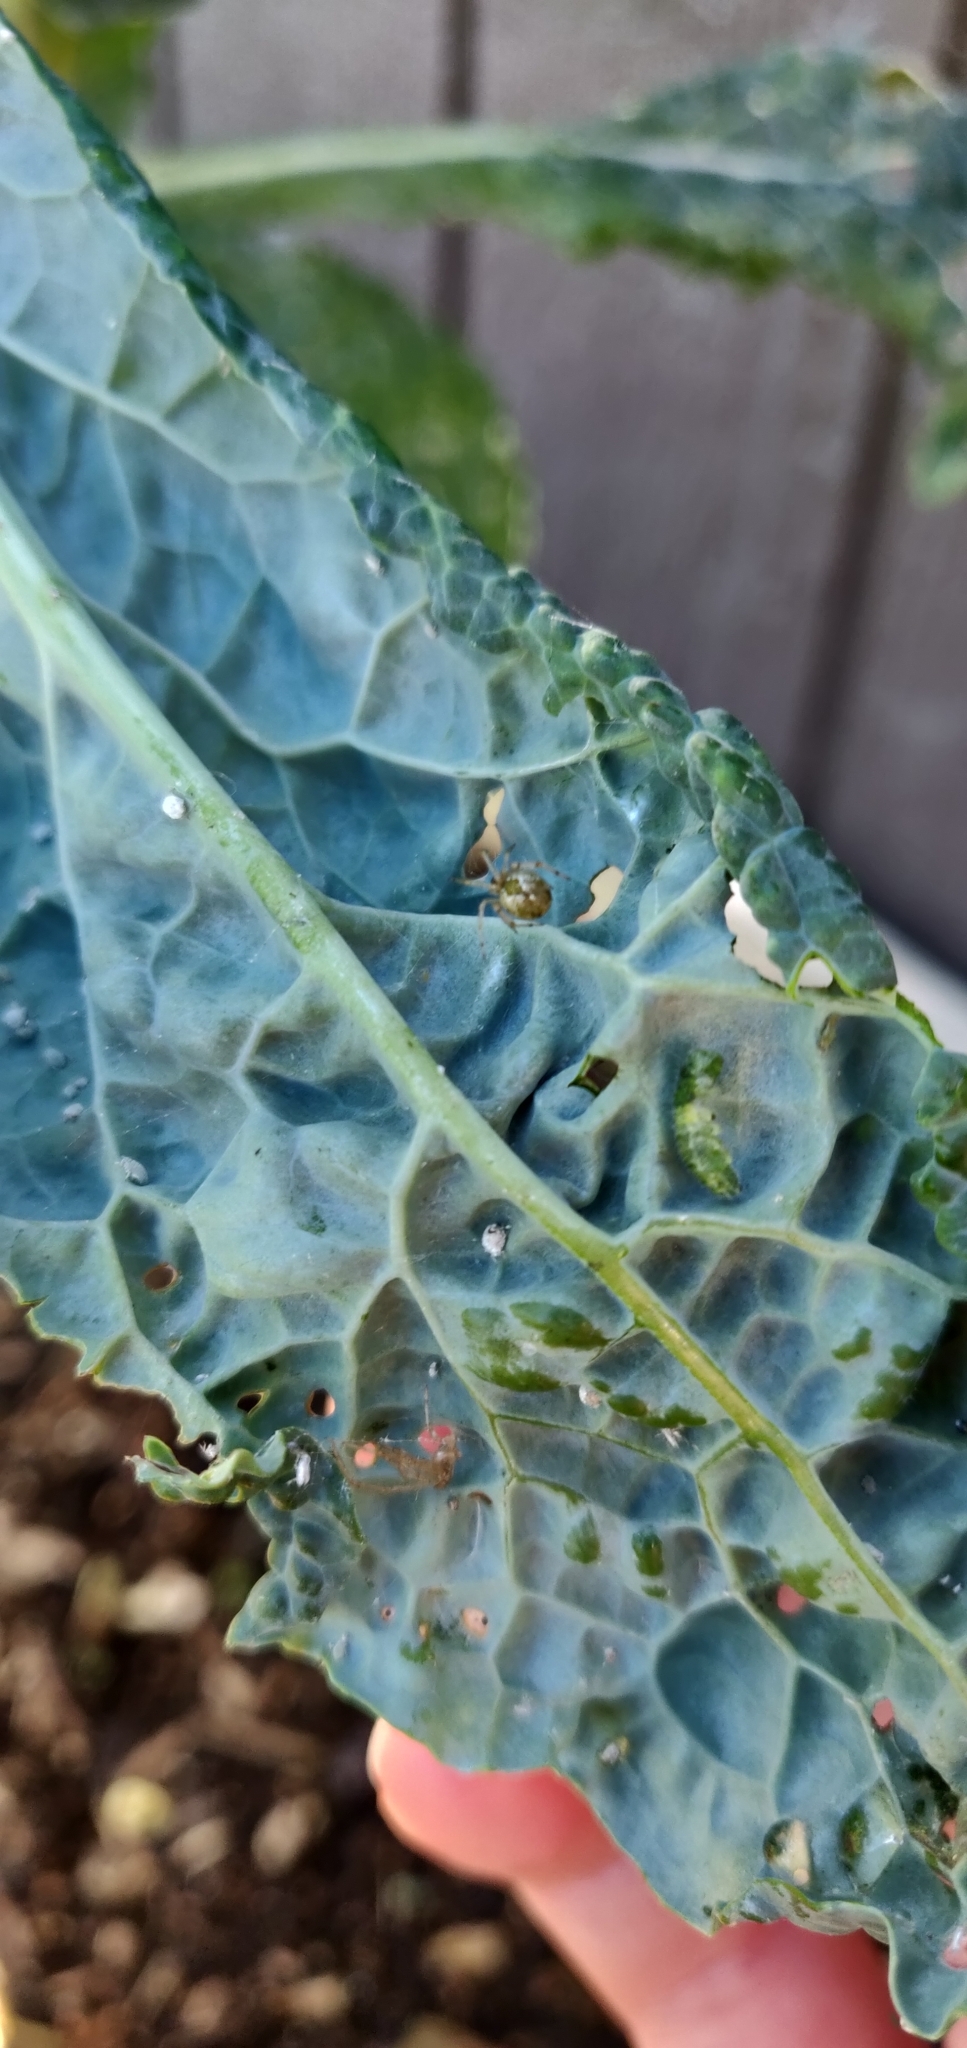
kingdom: Animalia
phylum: Arthropoda
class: Insecta
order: Lepidoptera
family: Pieridae
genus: Pieris
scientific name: Pieris rapae
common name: Small white
